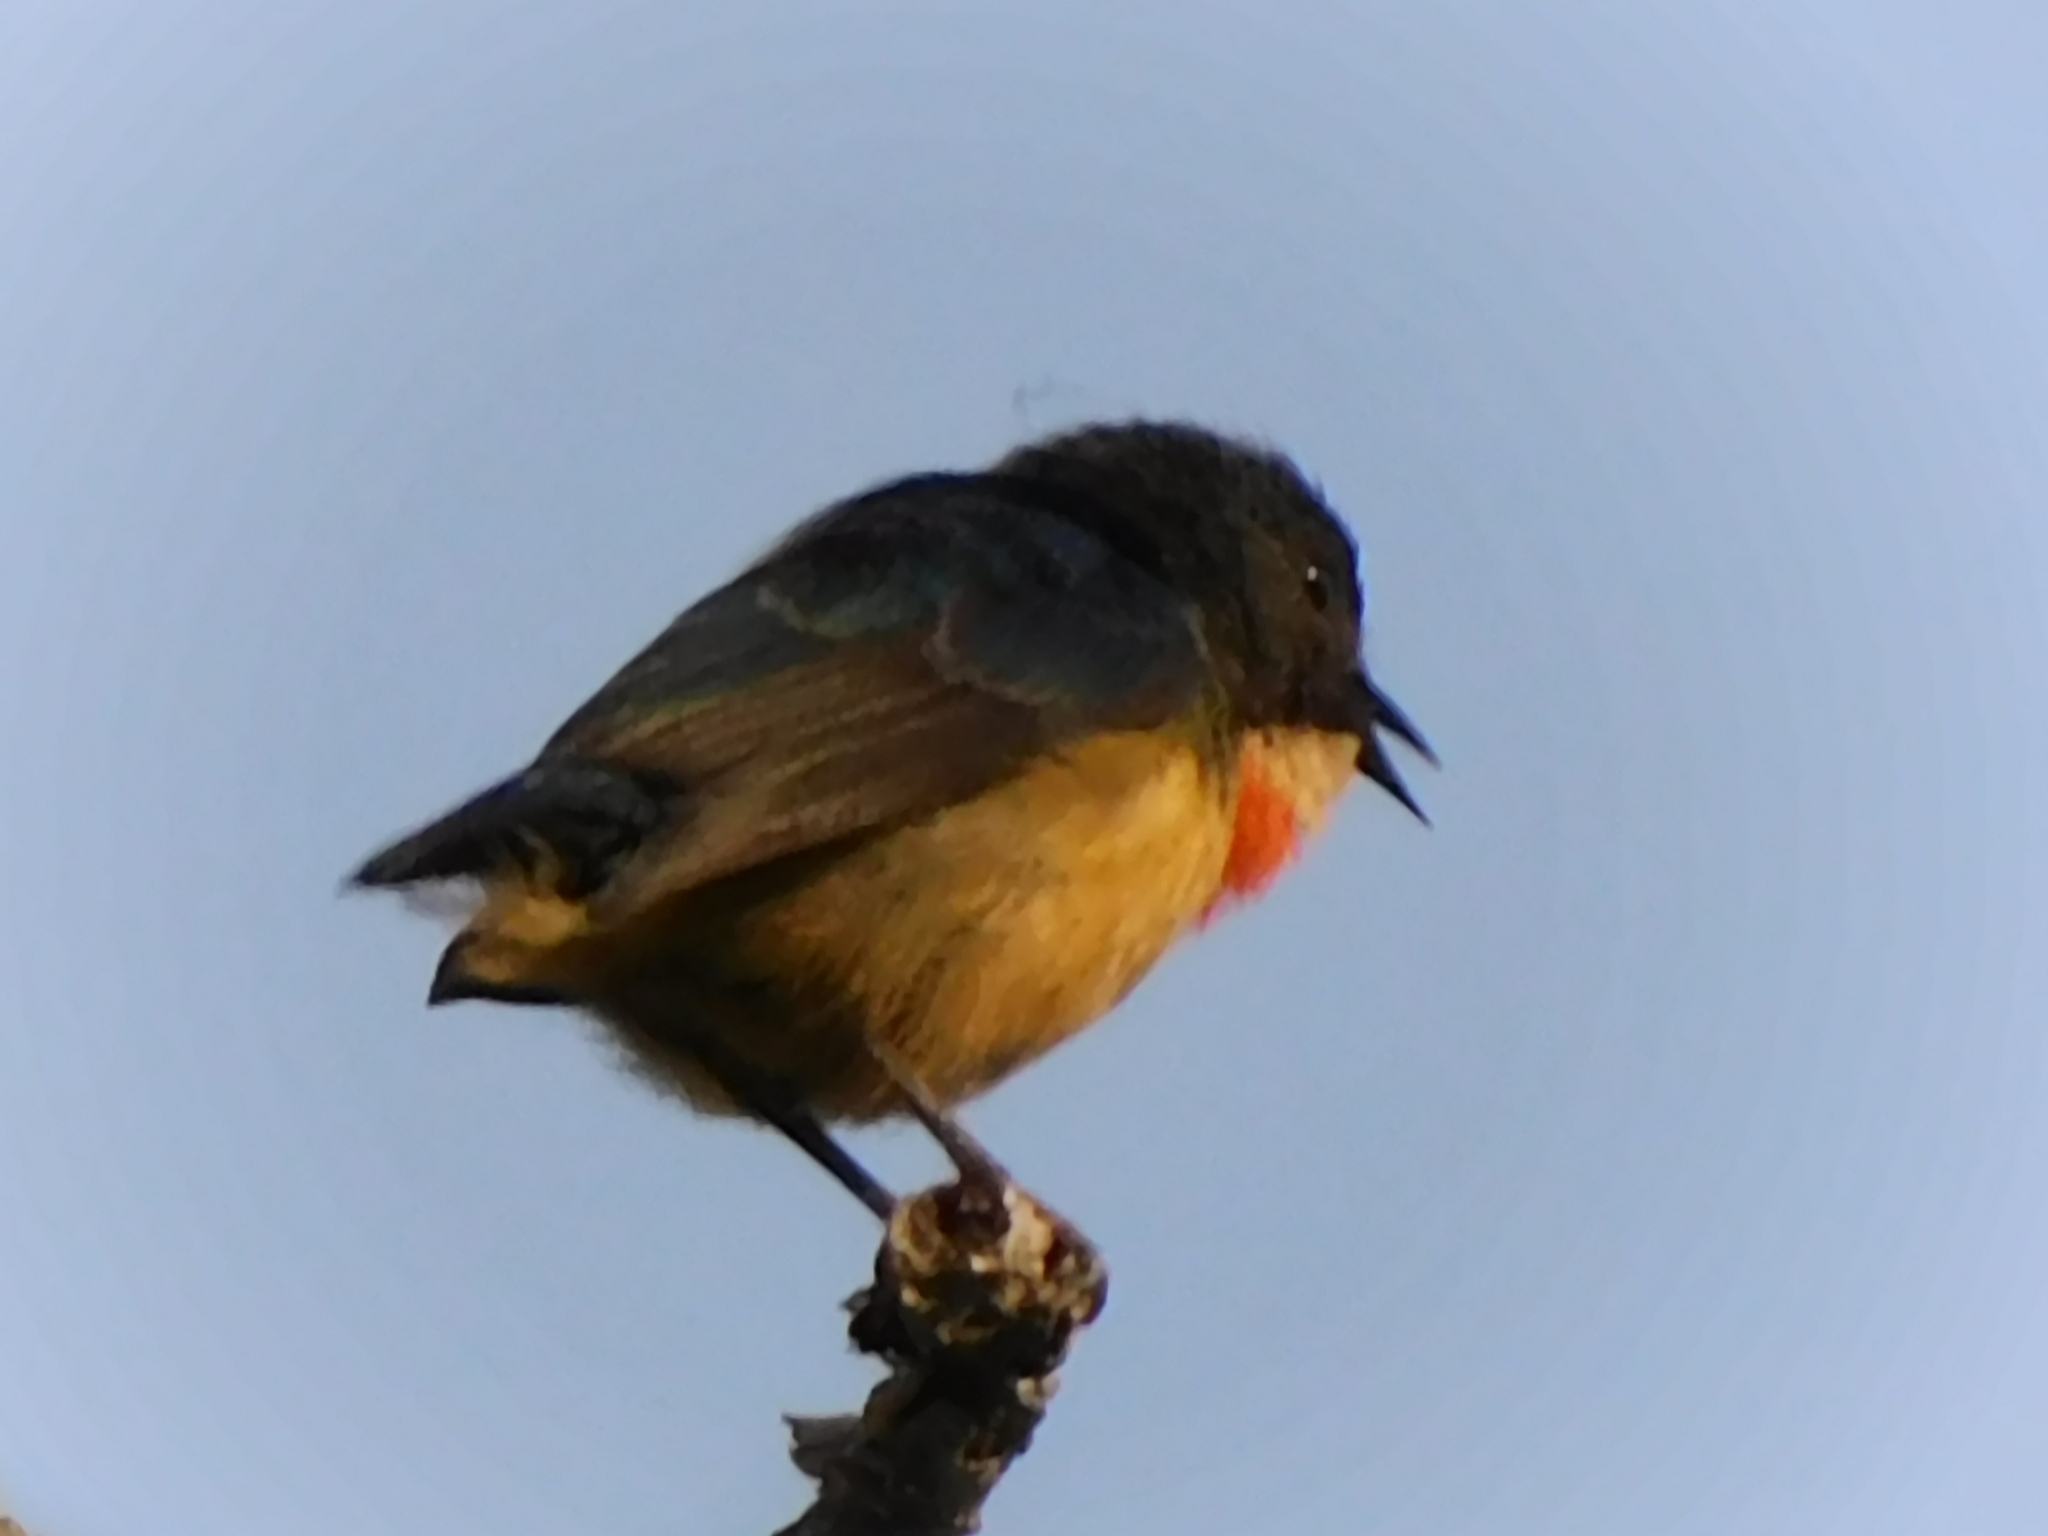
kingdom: Animalia
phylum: Chordata
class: Aves
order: Passeriformes
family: Dicaeidae
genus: Dicaeum
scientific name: Dicaeum ignipectus
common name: Fire-breasted flowerpecker
